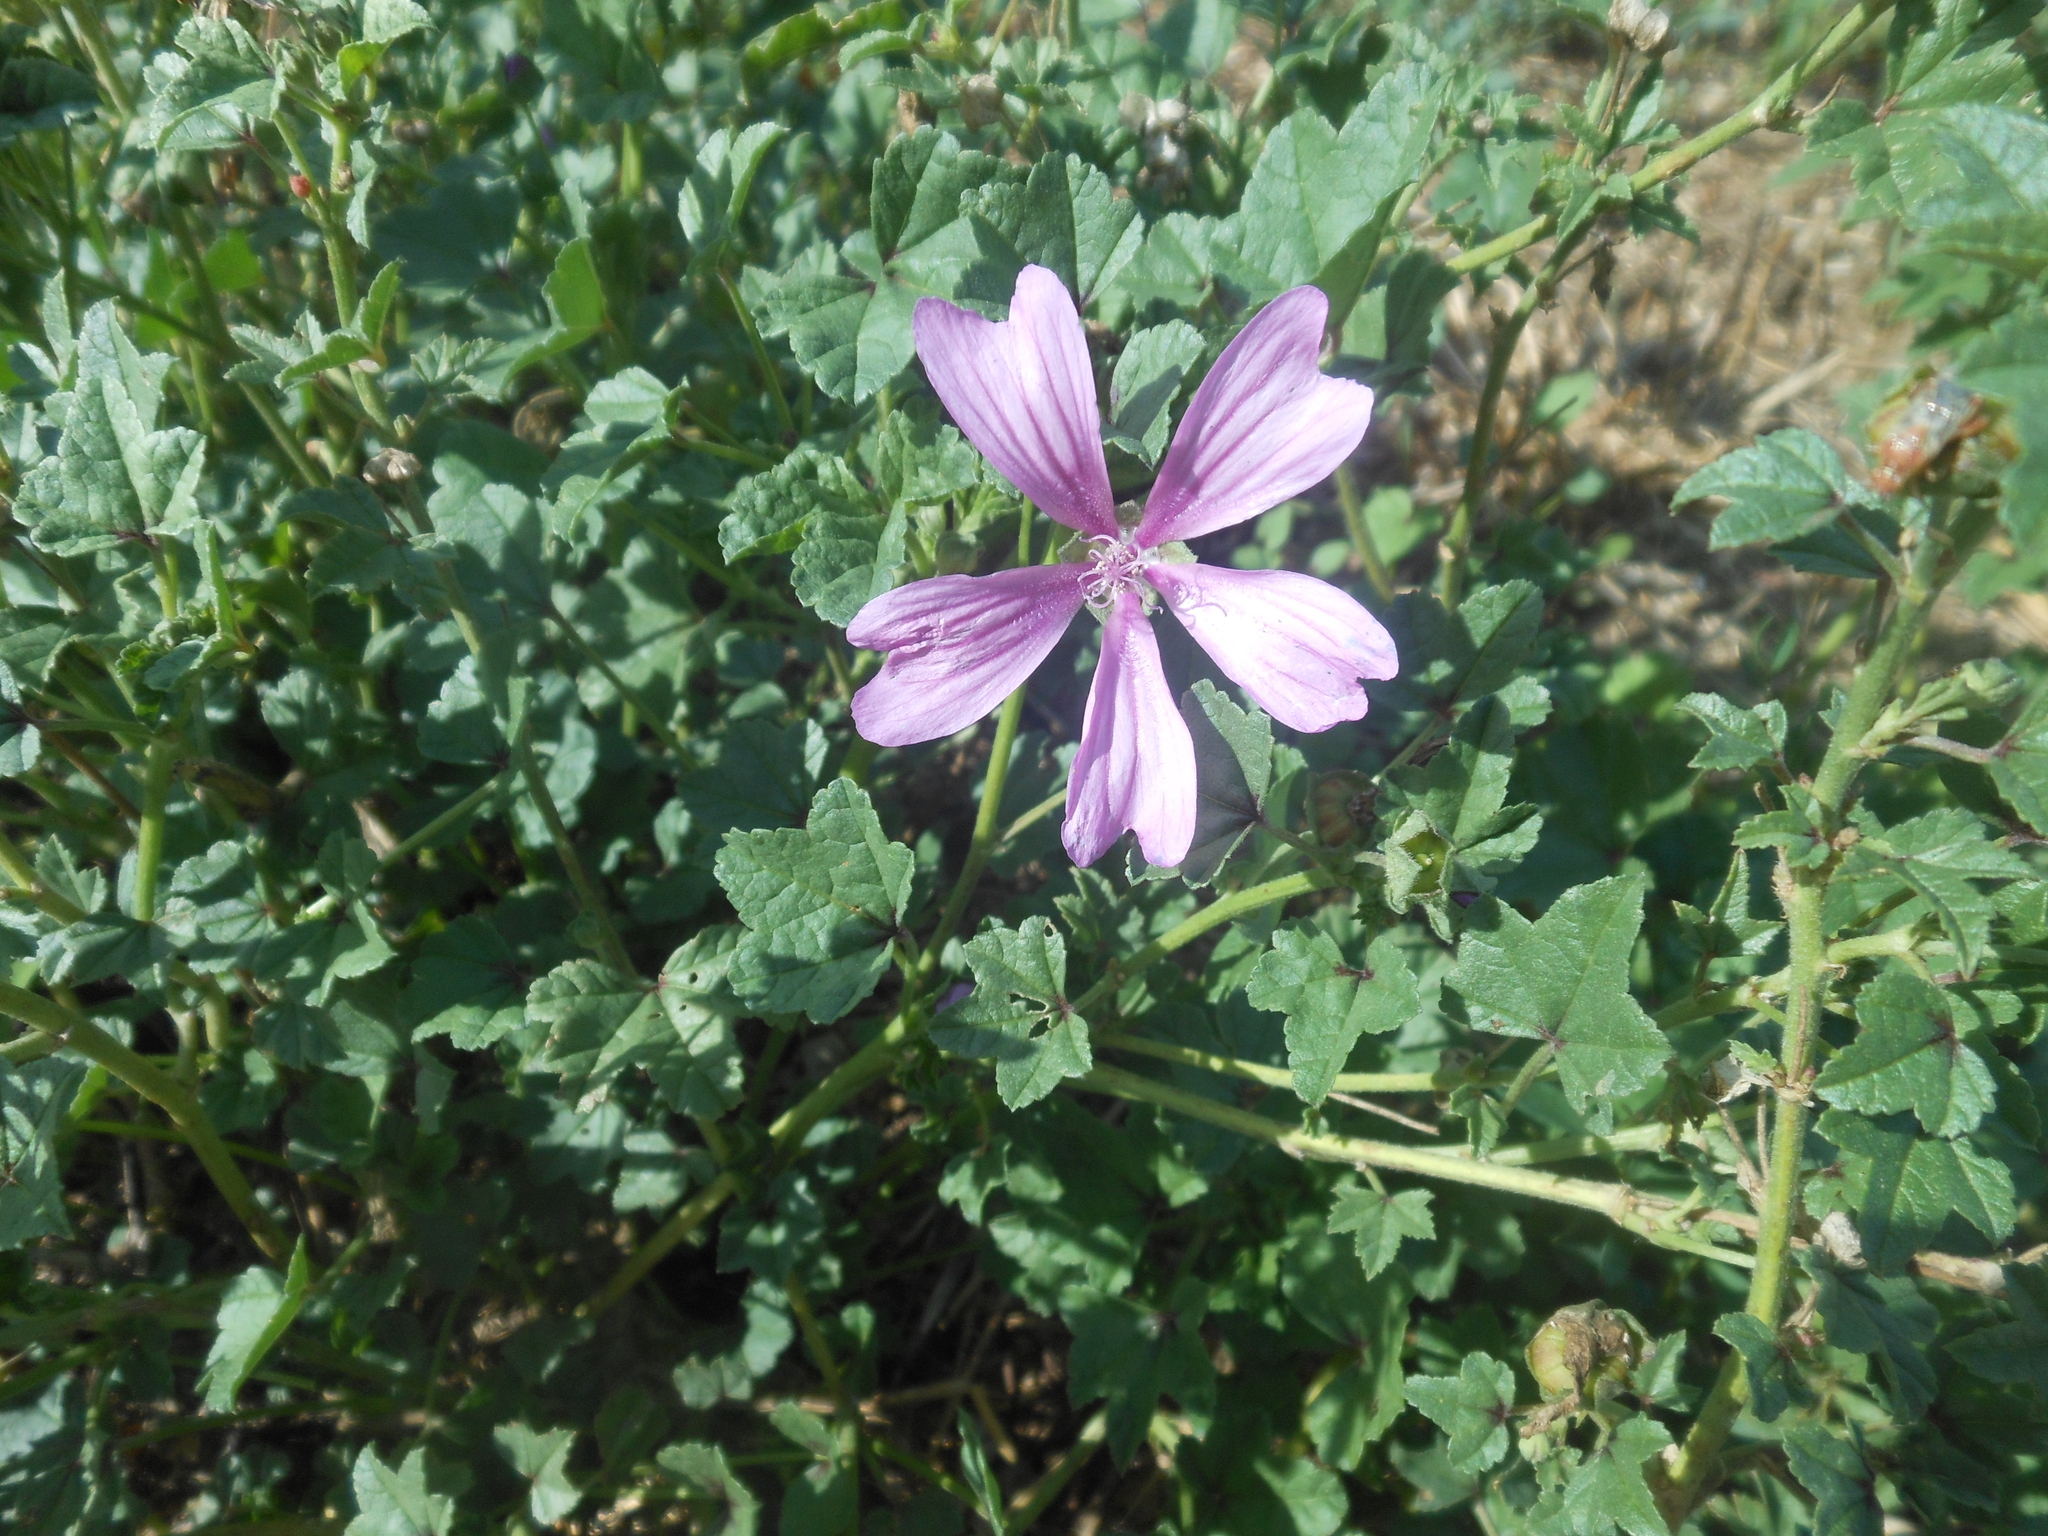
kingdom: Plantae
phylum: Tracheophyta
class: Magnoliopsida
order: Malvales
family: Malvaceae
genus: Malva
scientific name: Malva sylvestris
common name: Common mallow
